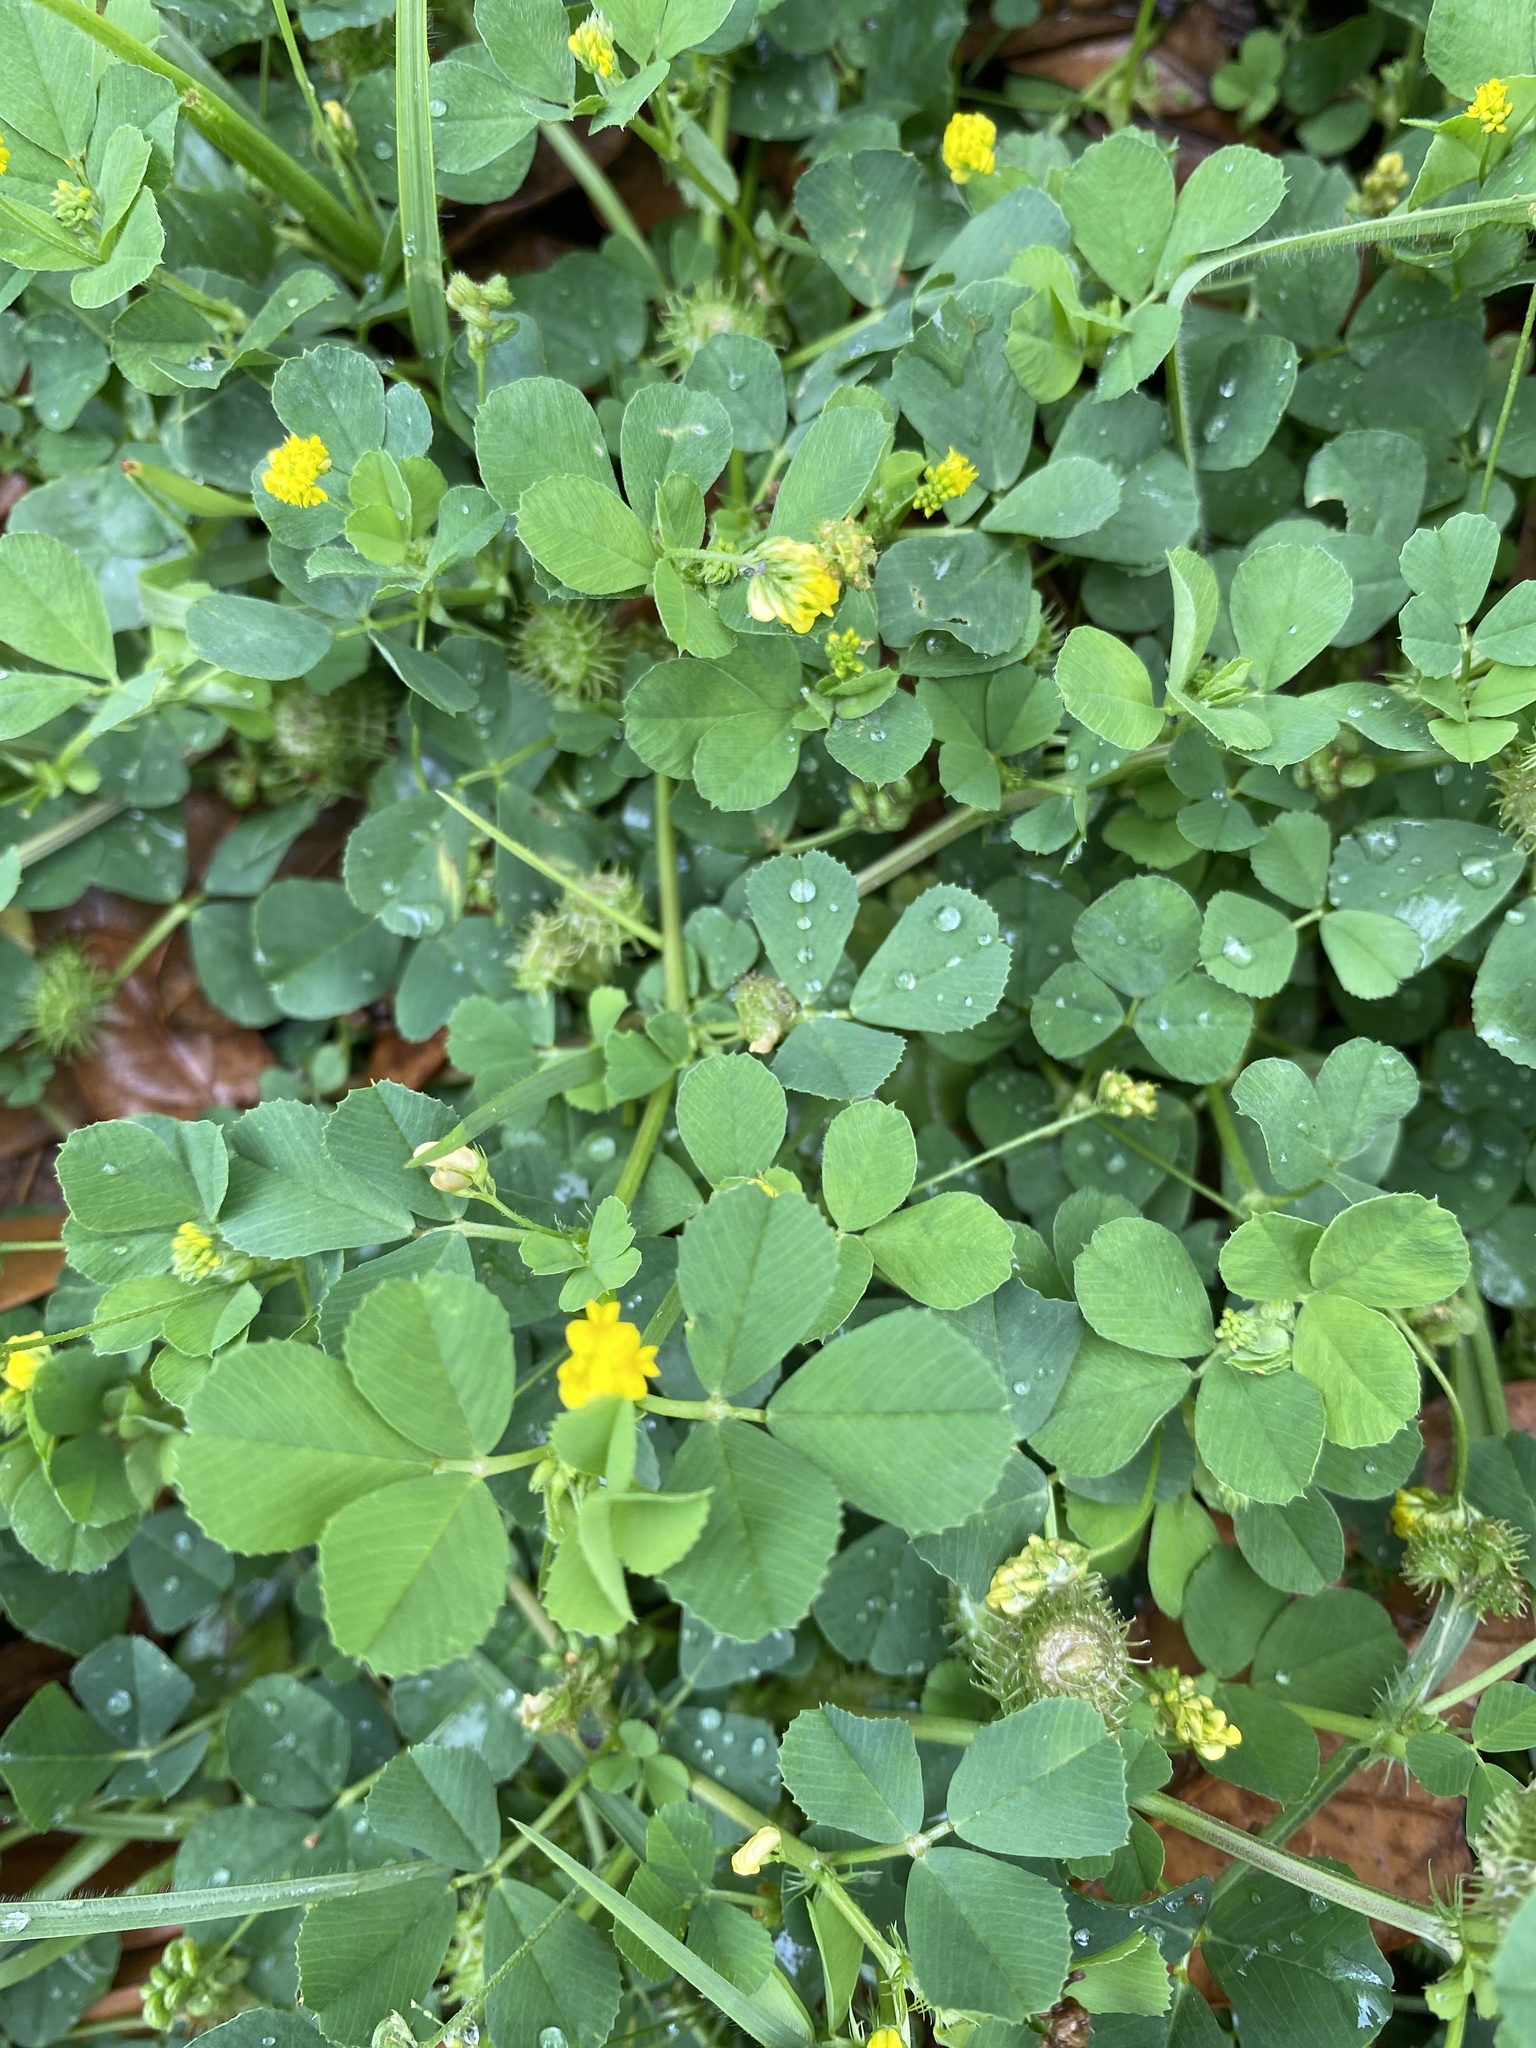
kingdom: Plantae
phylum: Tracheophyta
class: Magnoliopsida
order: Fabales
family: Fabaceae
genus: Medicago
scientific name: Medicago polymorpha
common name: Burclover
